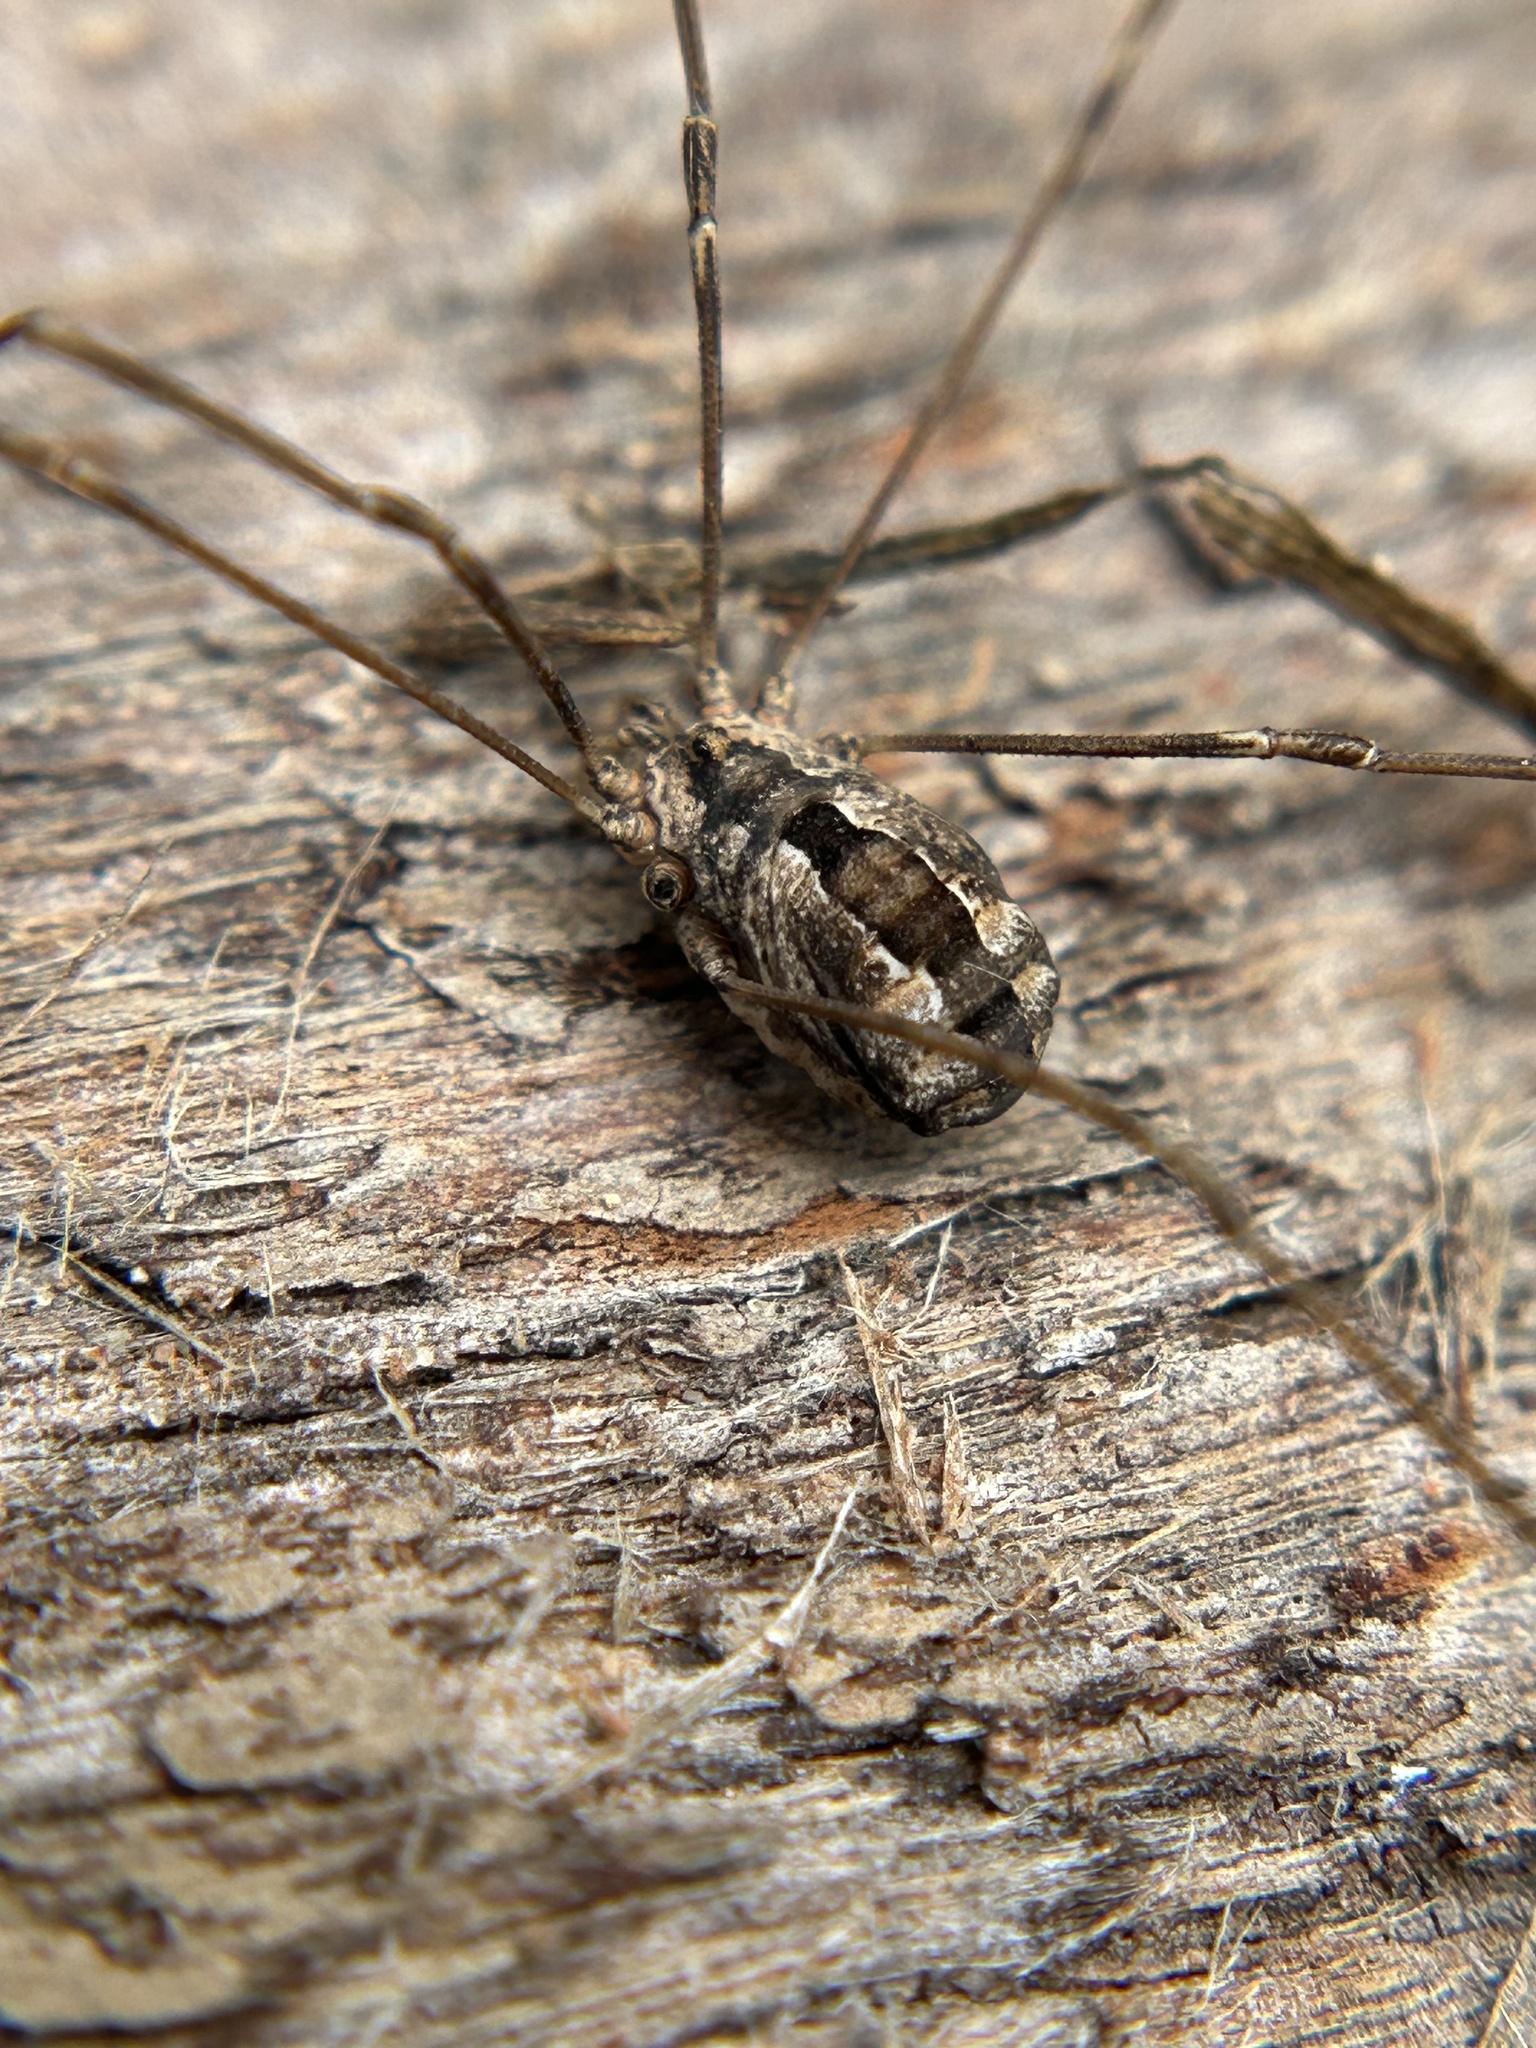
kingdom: Animalia
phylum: Arthropoda
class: Arachnida
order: Opiliones
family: Sclerosomatidae
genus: Leuronychus
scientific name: Leuronychus pacificus
